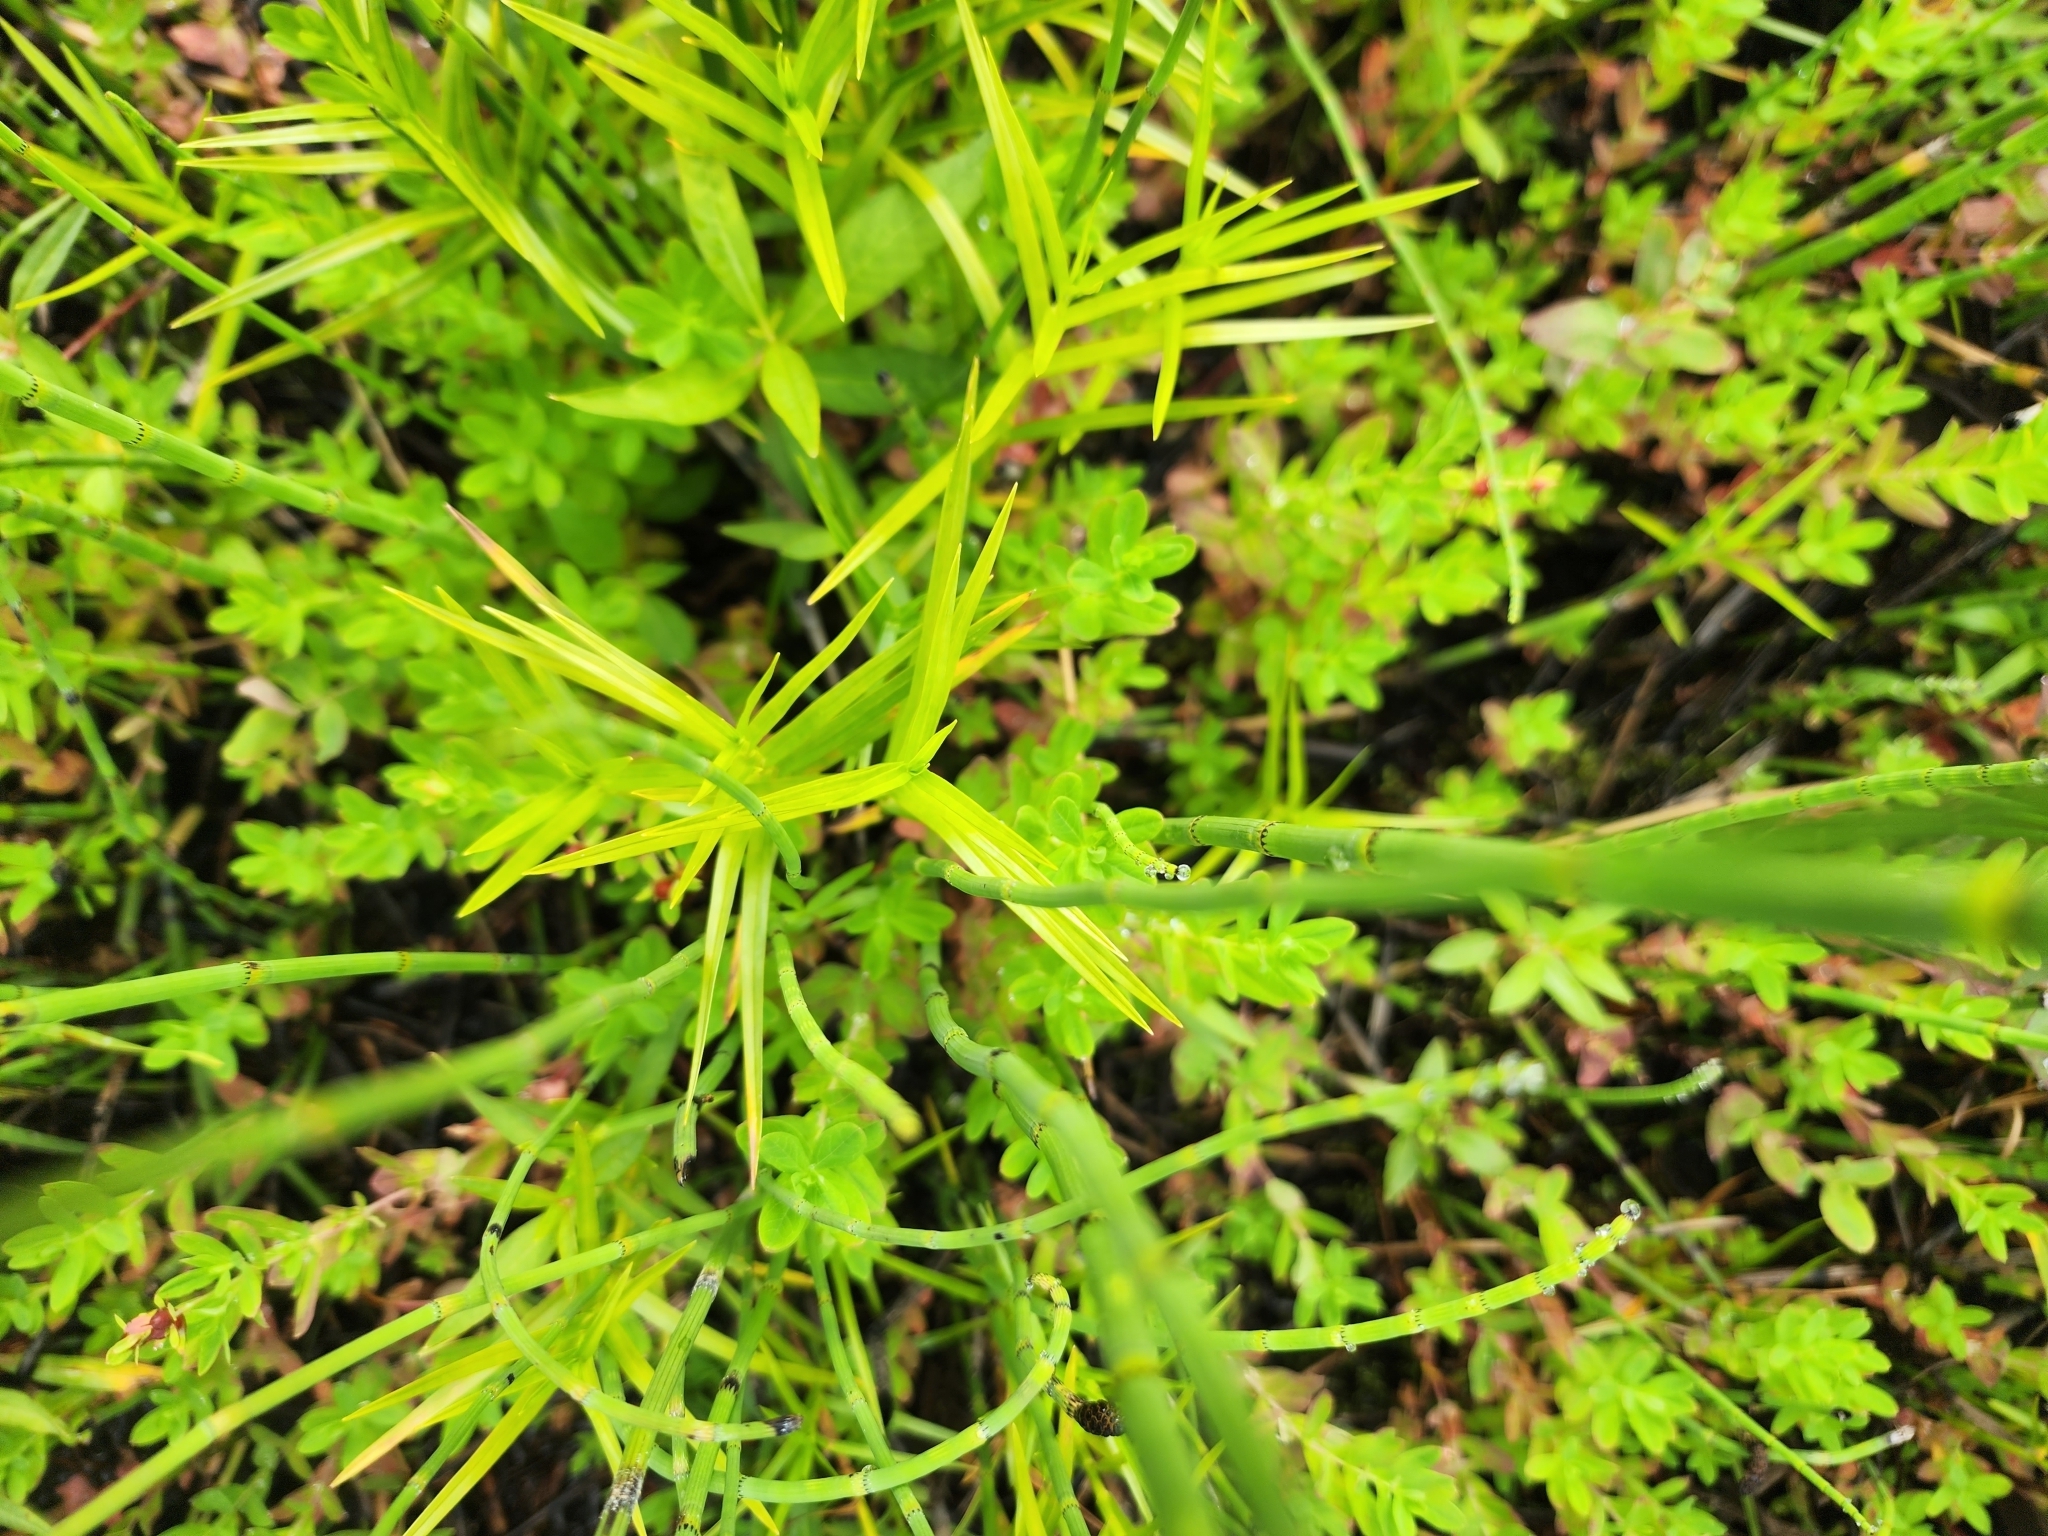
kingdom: Plantae
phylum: Tracheophyta
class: Liliopsida
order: Poales
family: Cyperaceae
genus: Dulichium
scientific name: Dulichium arundinaceum
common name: Three-way sedge
